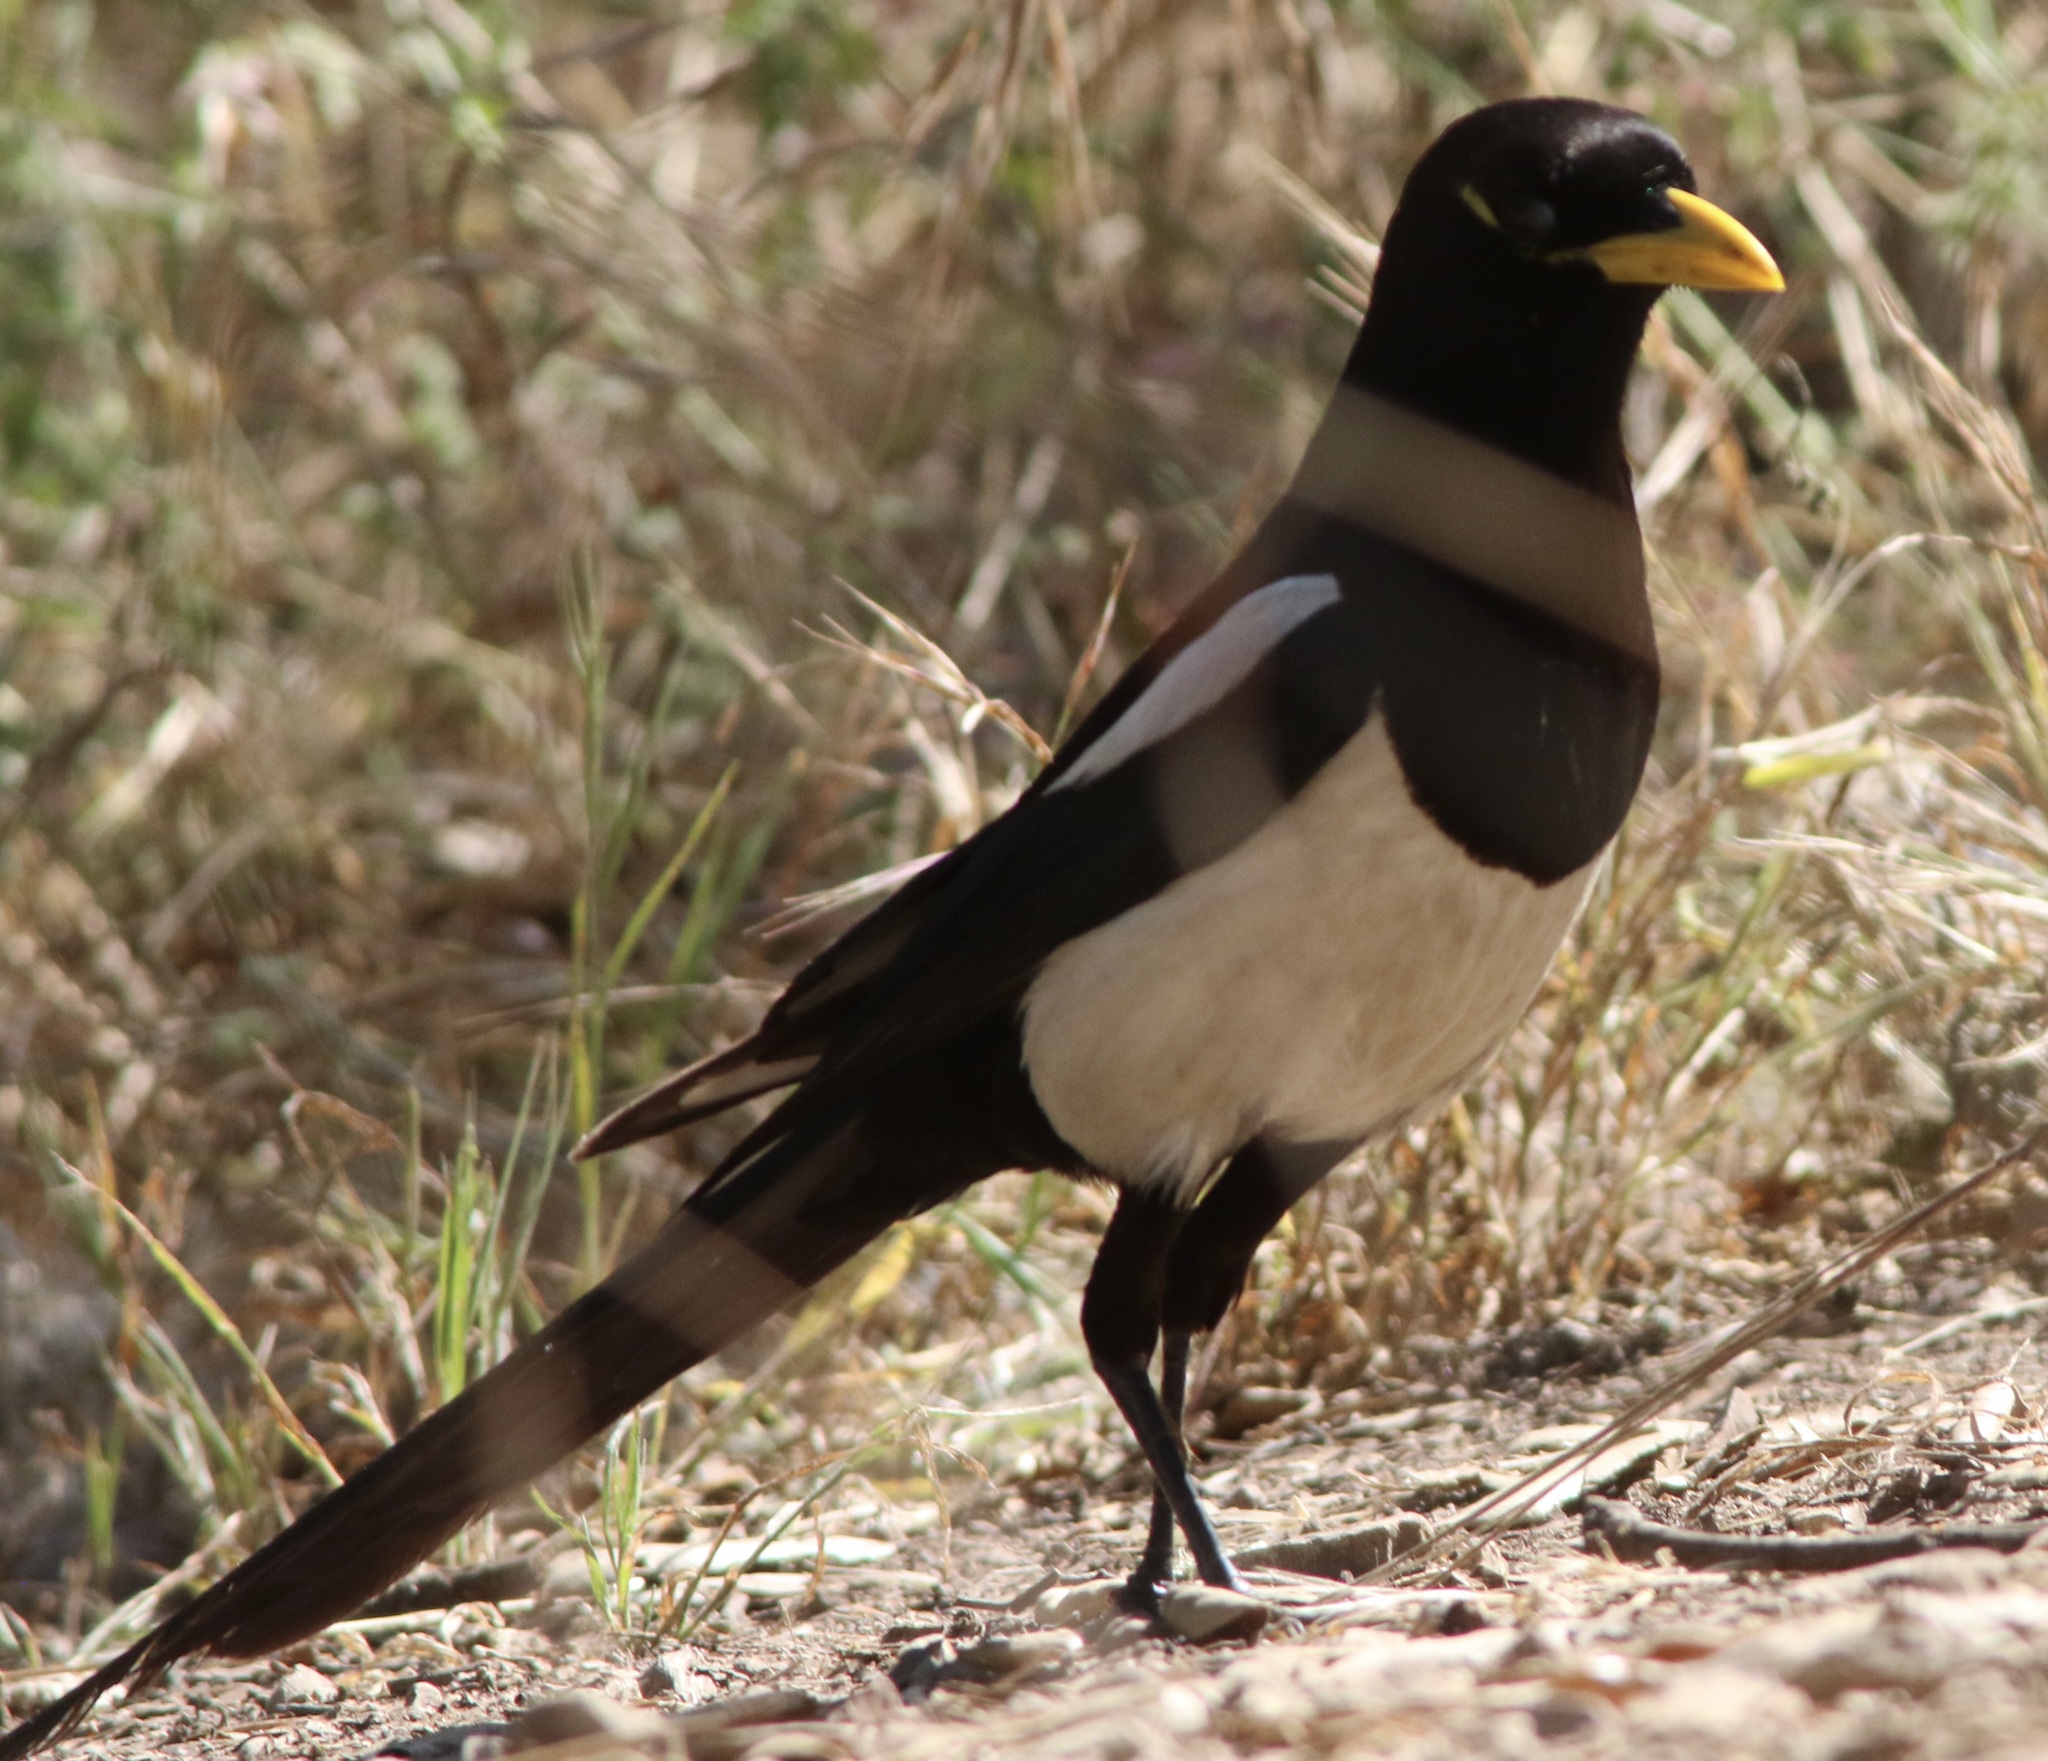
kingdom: Animalia
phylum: Chordata
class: Aves
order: Passeriformes
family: Corvidae
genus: Pica
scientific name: Pica nuttalli
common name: Yellow-billed magpie
